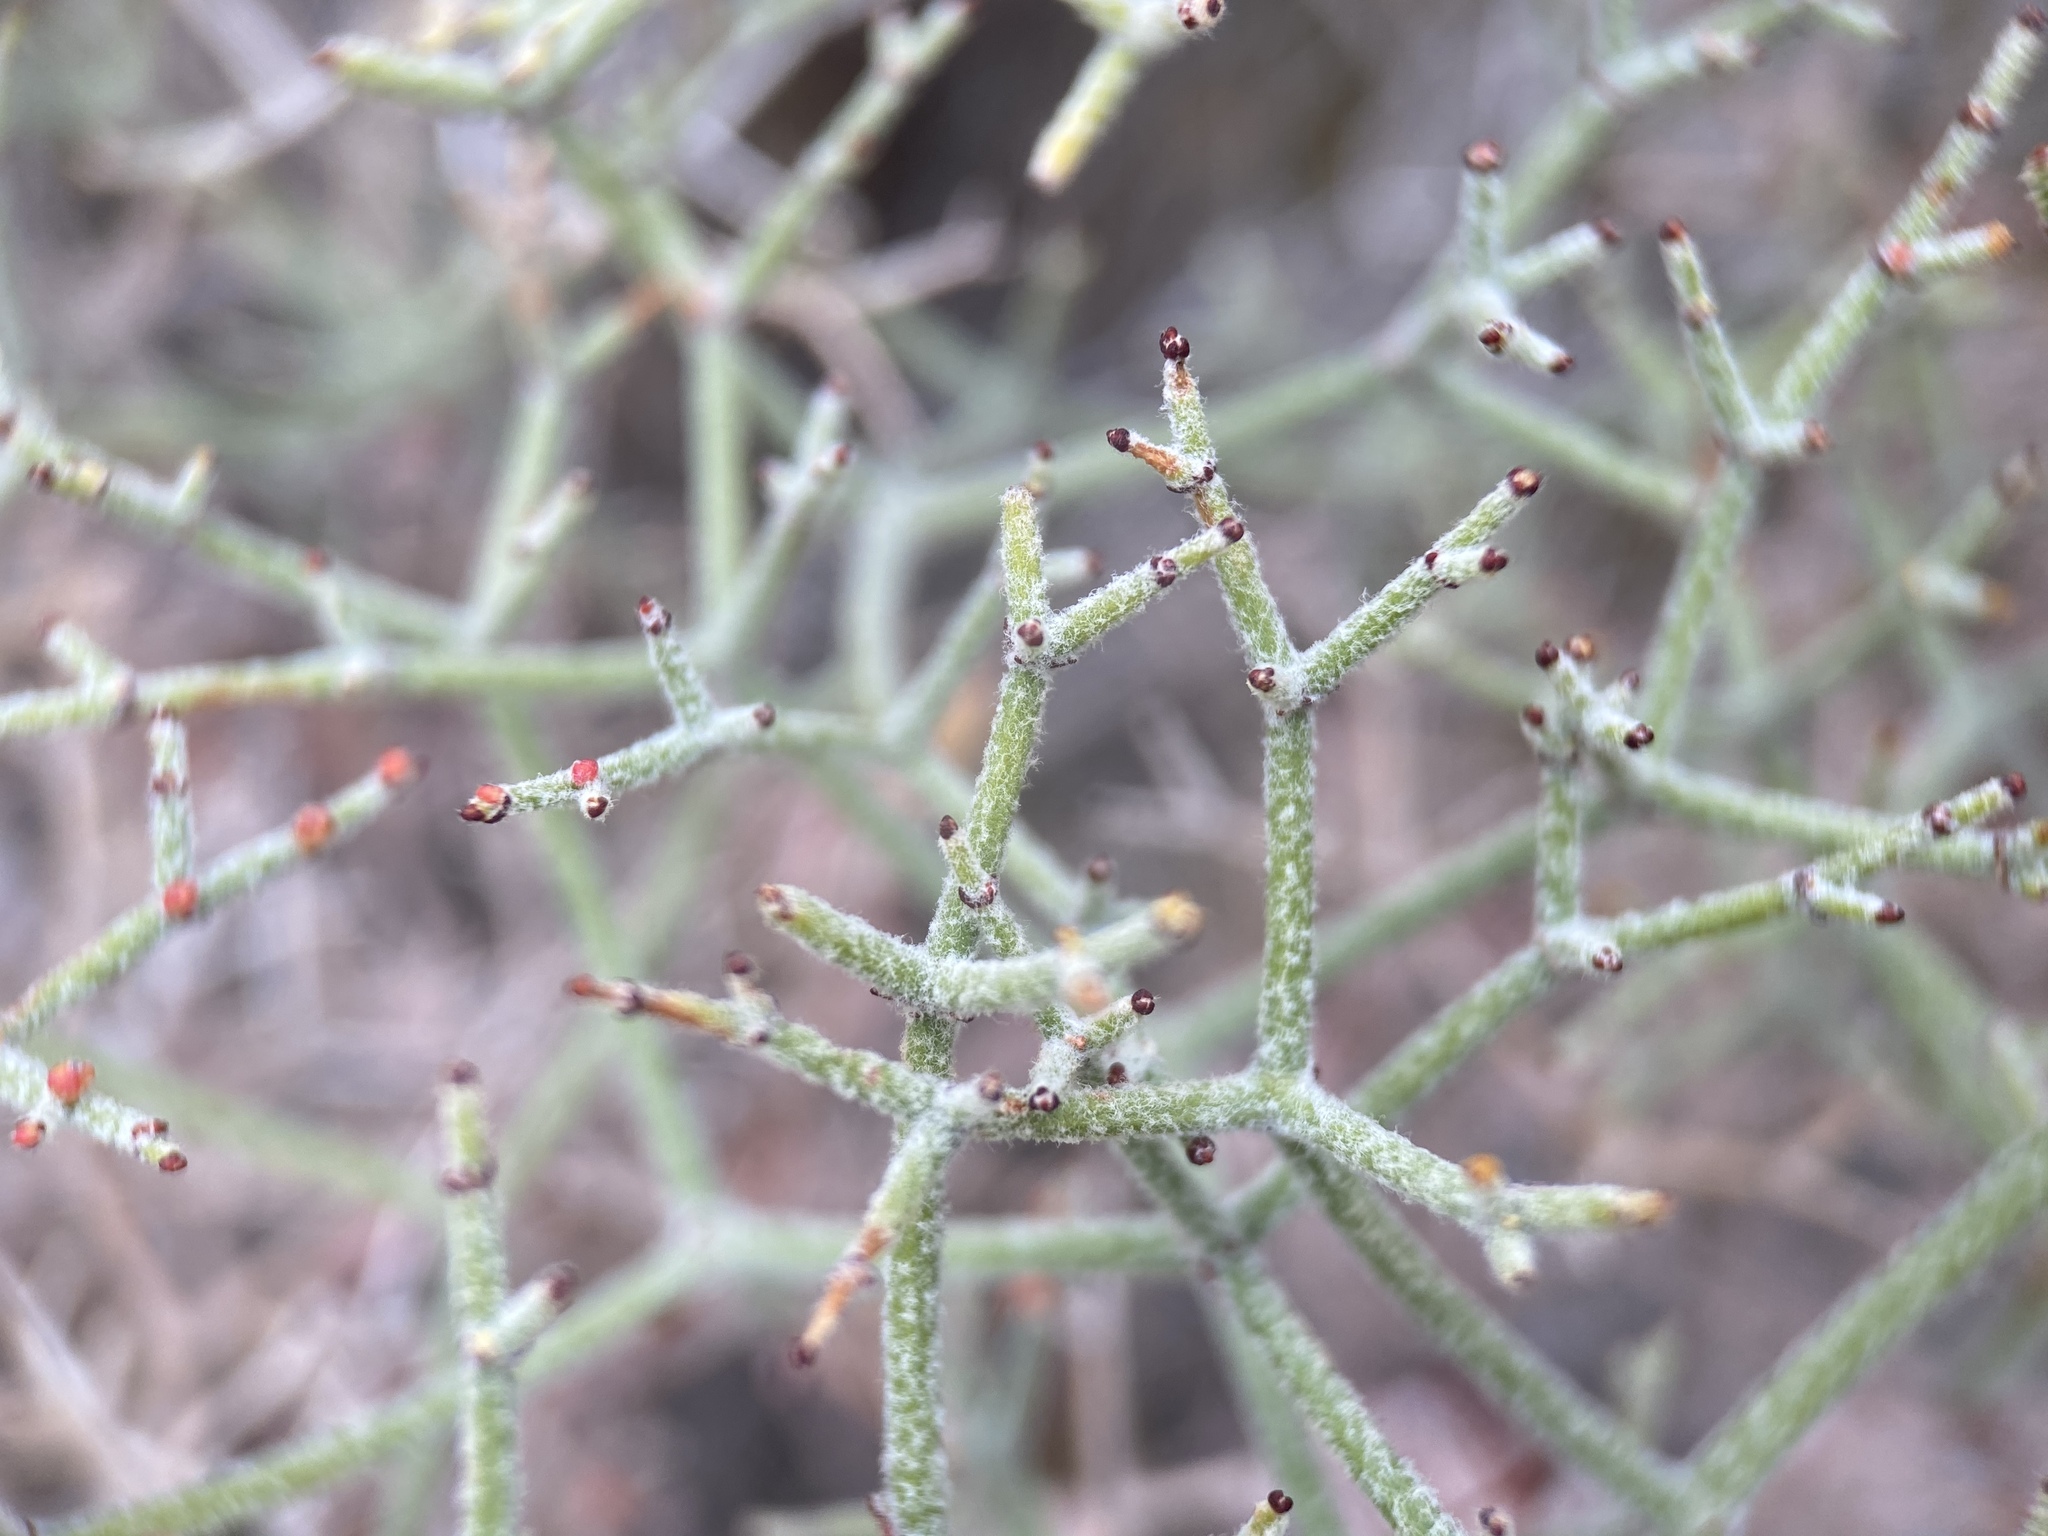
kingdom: Plantae
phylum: Tracheophyta
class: Magnoliopsida
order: Caryophyllales
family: Polygonaceae
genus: Eriogonum
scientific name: Eriogonum heermannii
